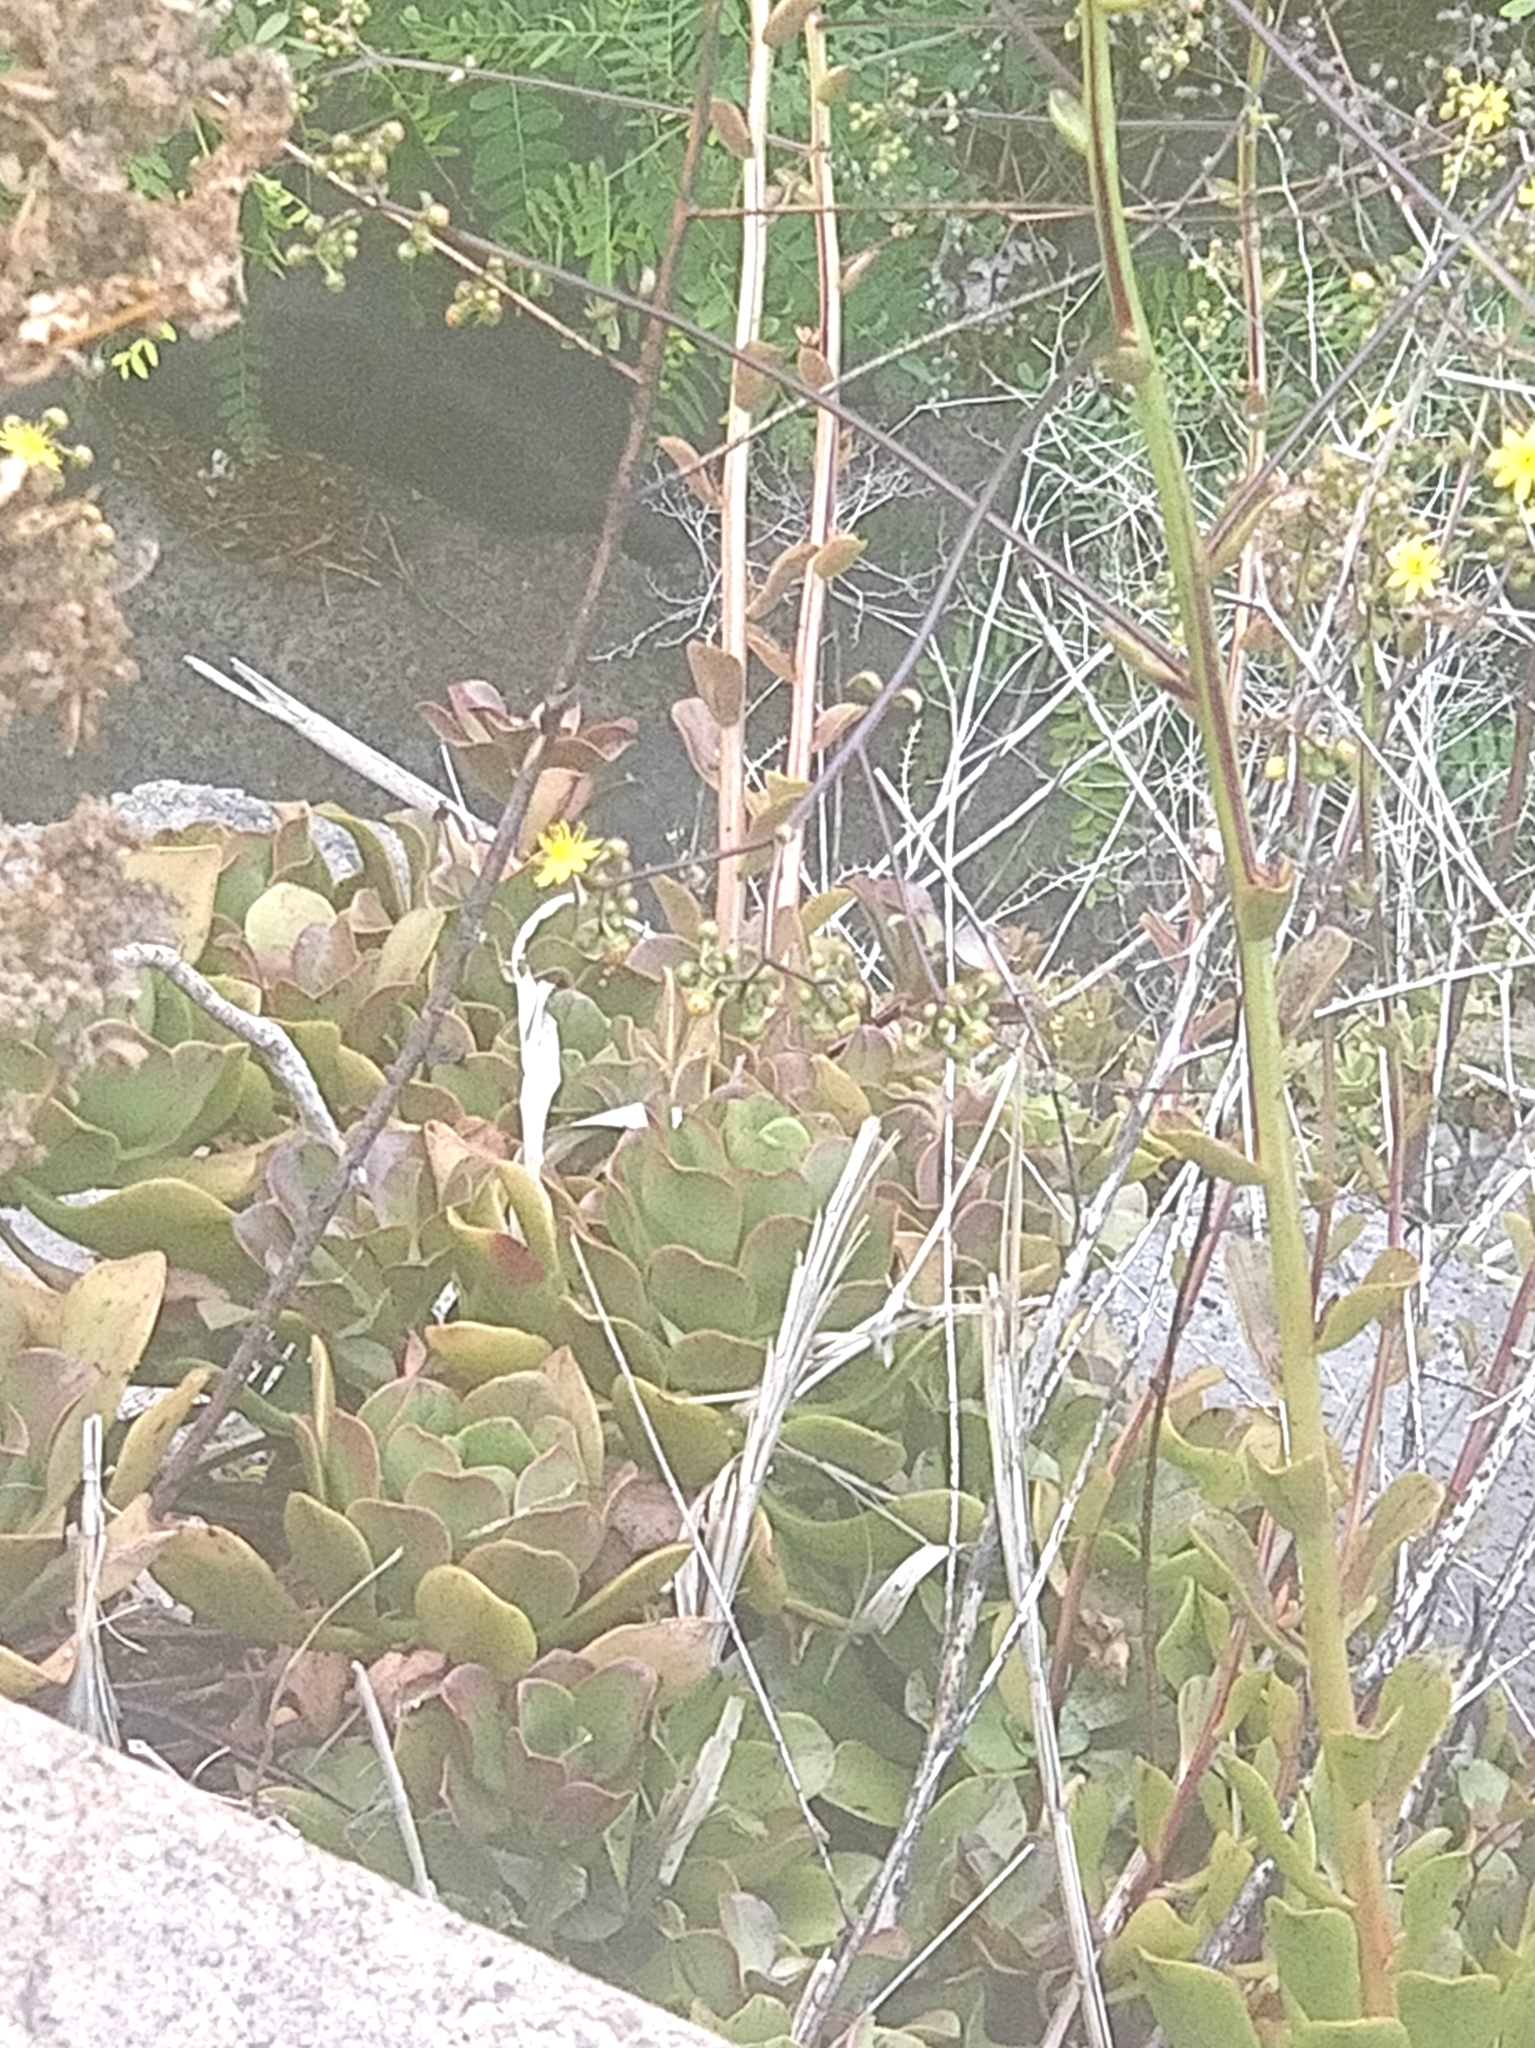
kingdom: Plantae
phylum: Tracheophyta
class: Magnoliopsida
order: Saxifragales
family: Crassulaceae
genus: Aeonium
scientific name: Aeonium glutinosum
